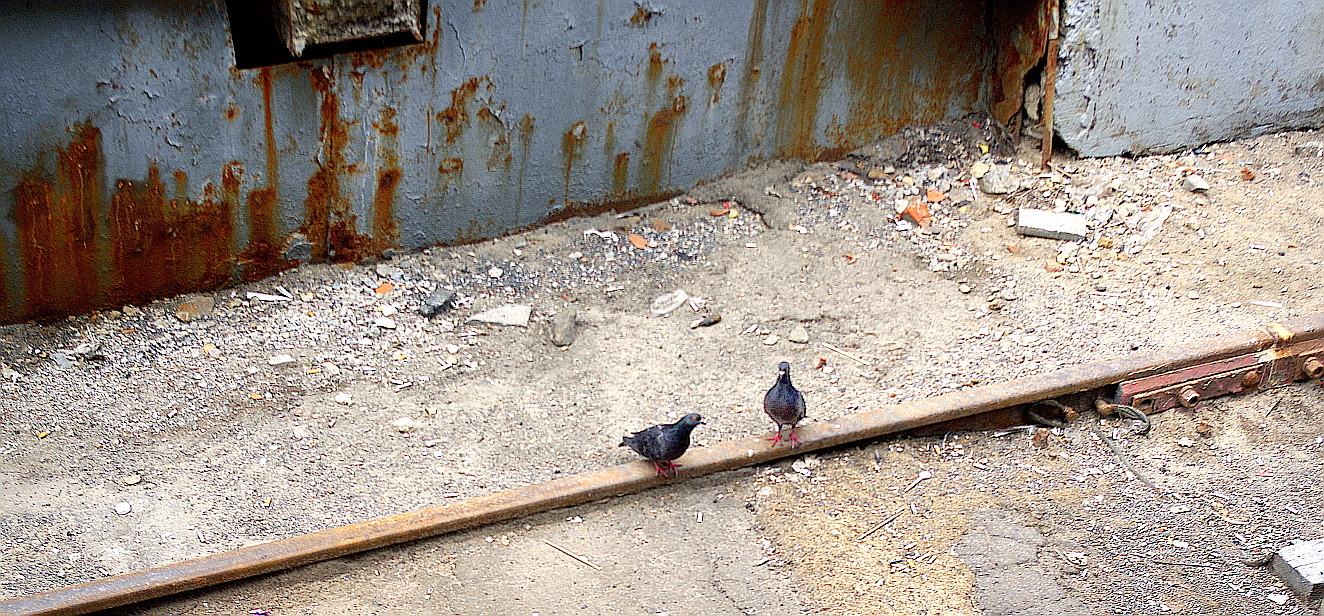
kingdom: Animalia
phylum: Chordata
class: Aves
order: Columbiformes
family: Columbidae
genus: Columba
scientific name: Columba livia
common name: Rock pigeon
